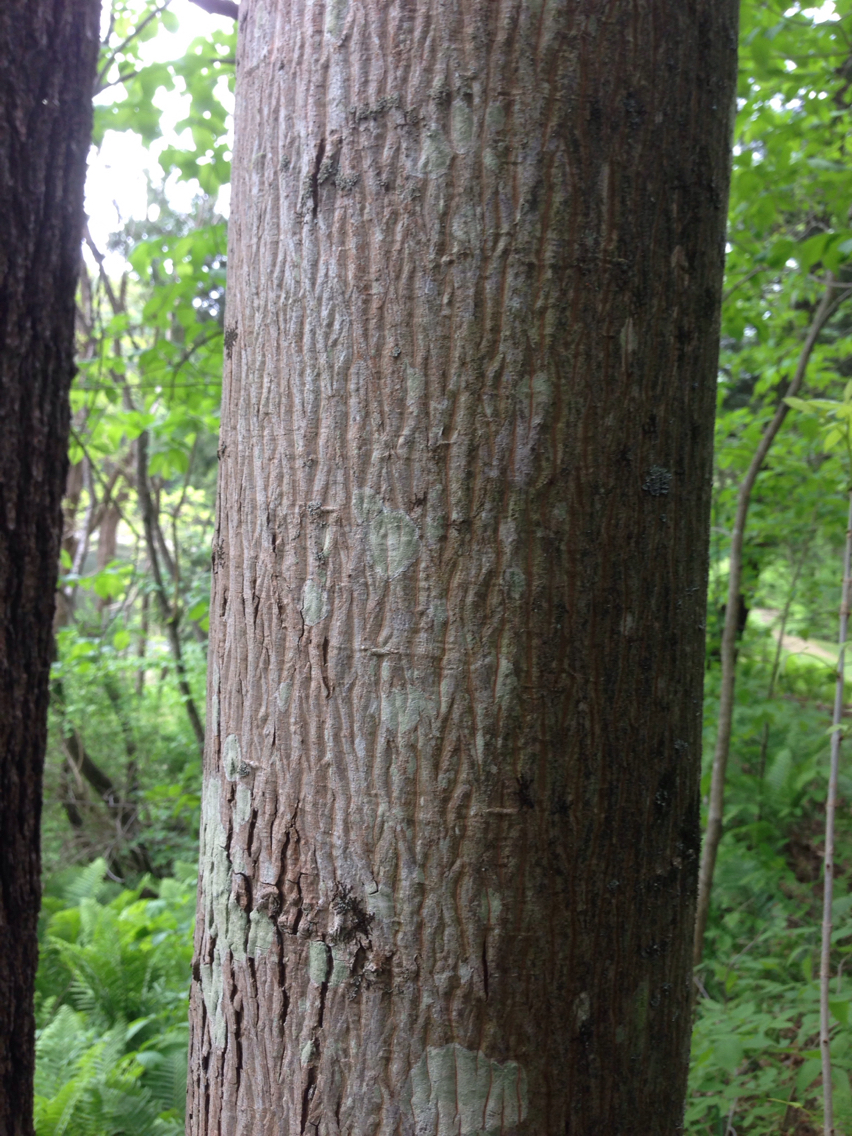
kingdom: Plantae
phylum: Tracheophyta
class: Magnoliopsida
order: Fagales
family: Juglandaceae
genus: Carya
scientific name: Carya cordiformis
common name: Bitternut hickory
